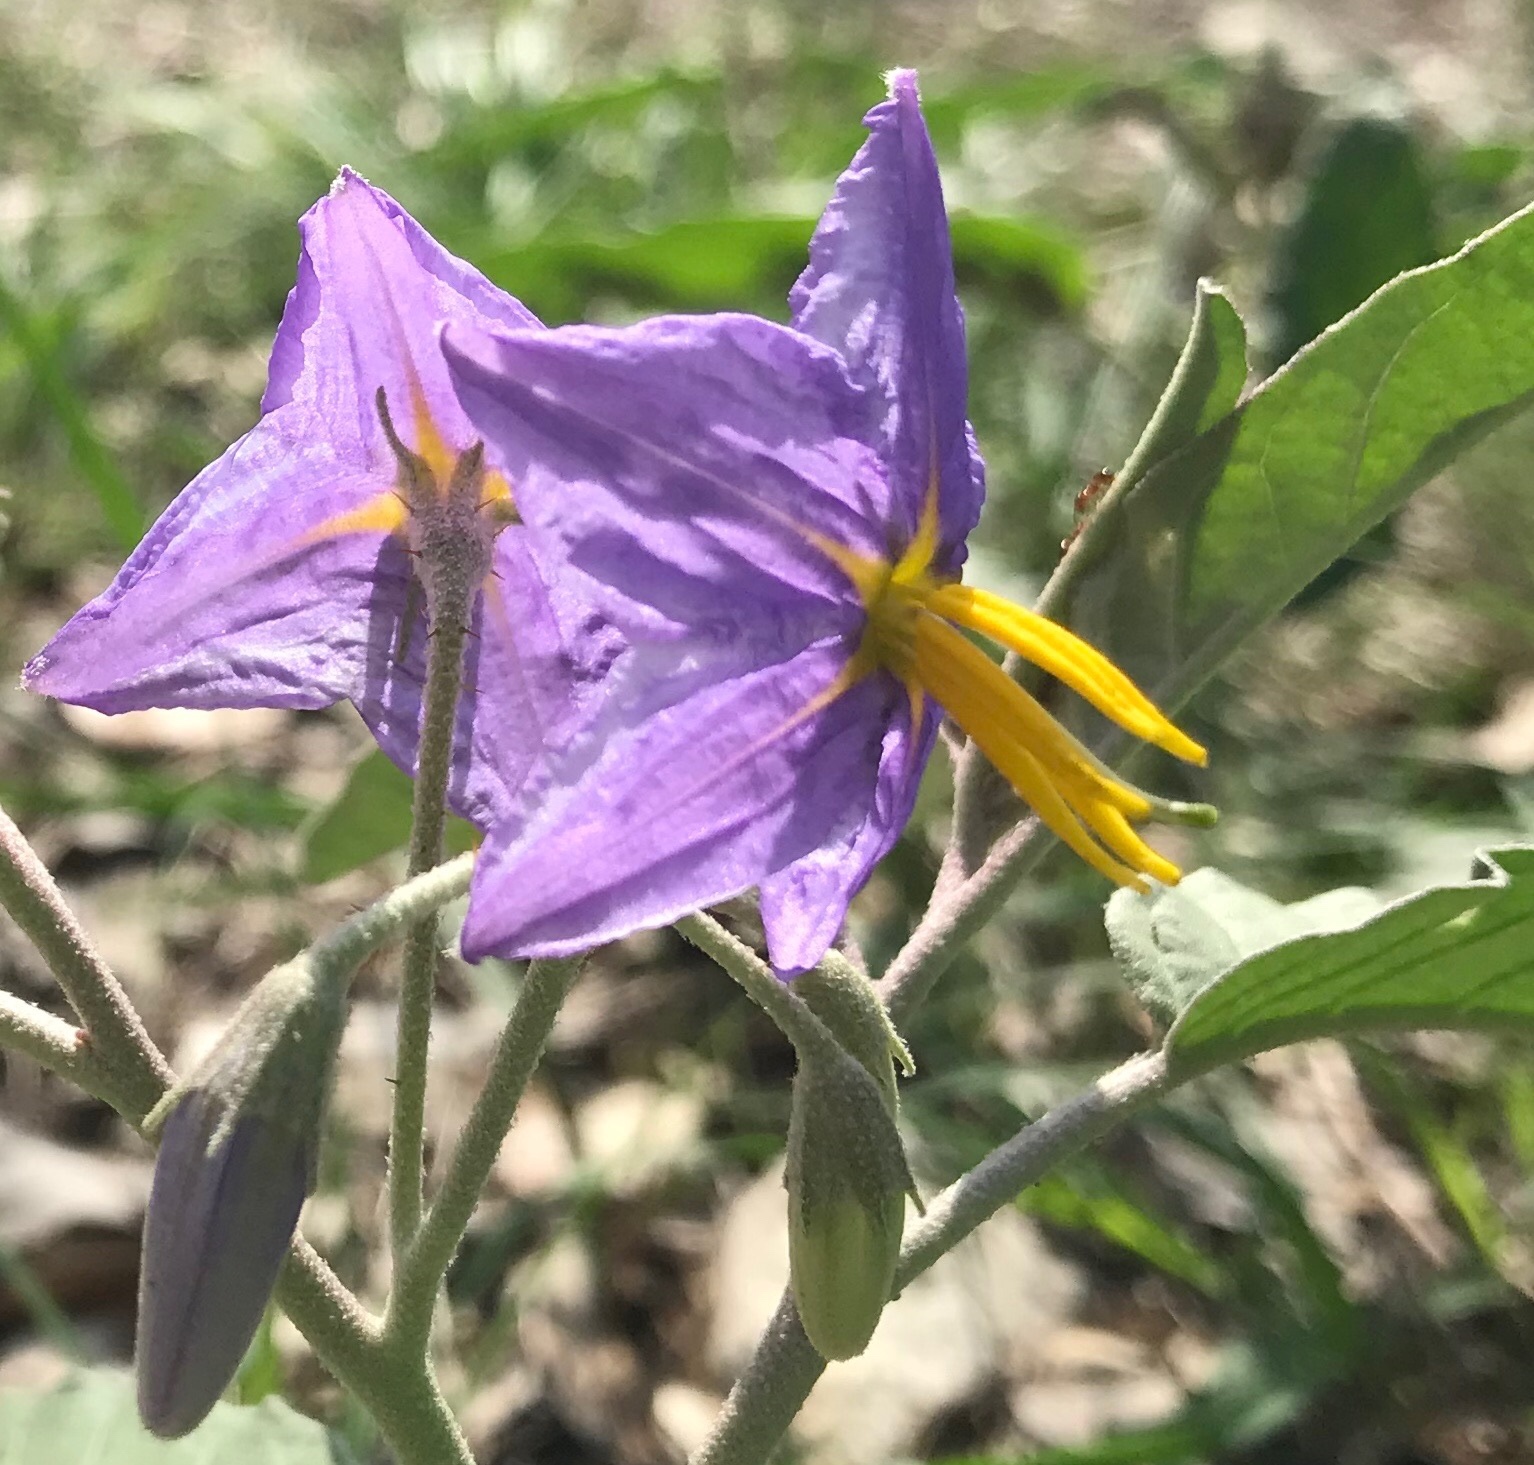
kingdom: Plantae
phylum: Tracheophyta
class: Magnoliopsida
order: Solanales
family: Solanaceae
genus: Solanum
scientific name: Solanum elaeagnifolium
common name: Silverleaf nightshade
